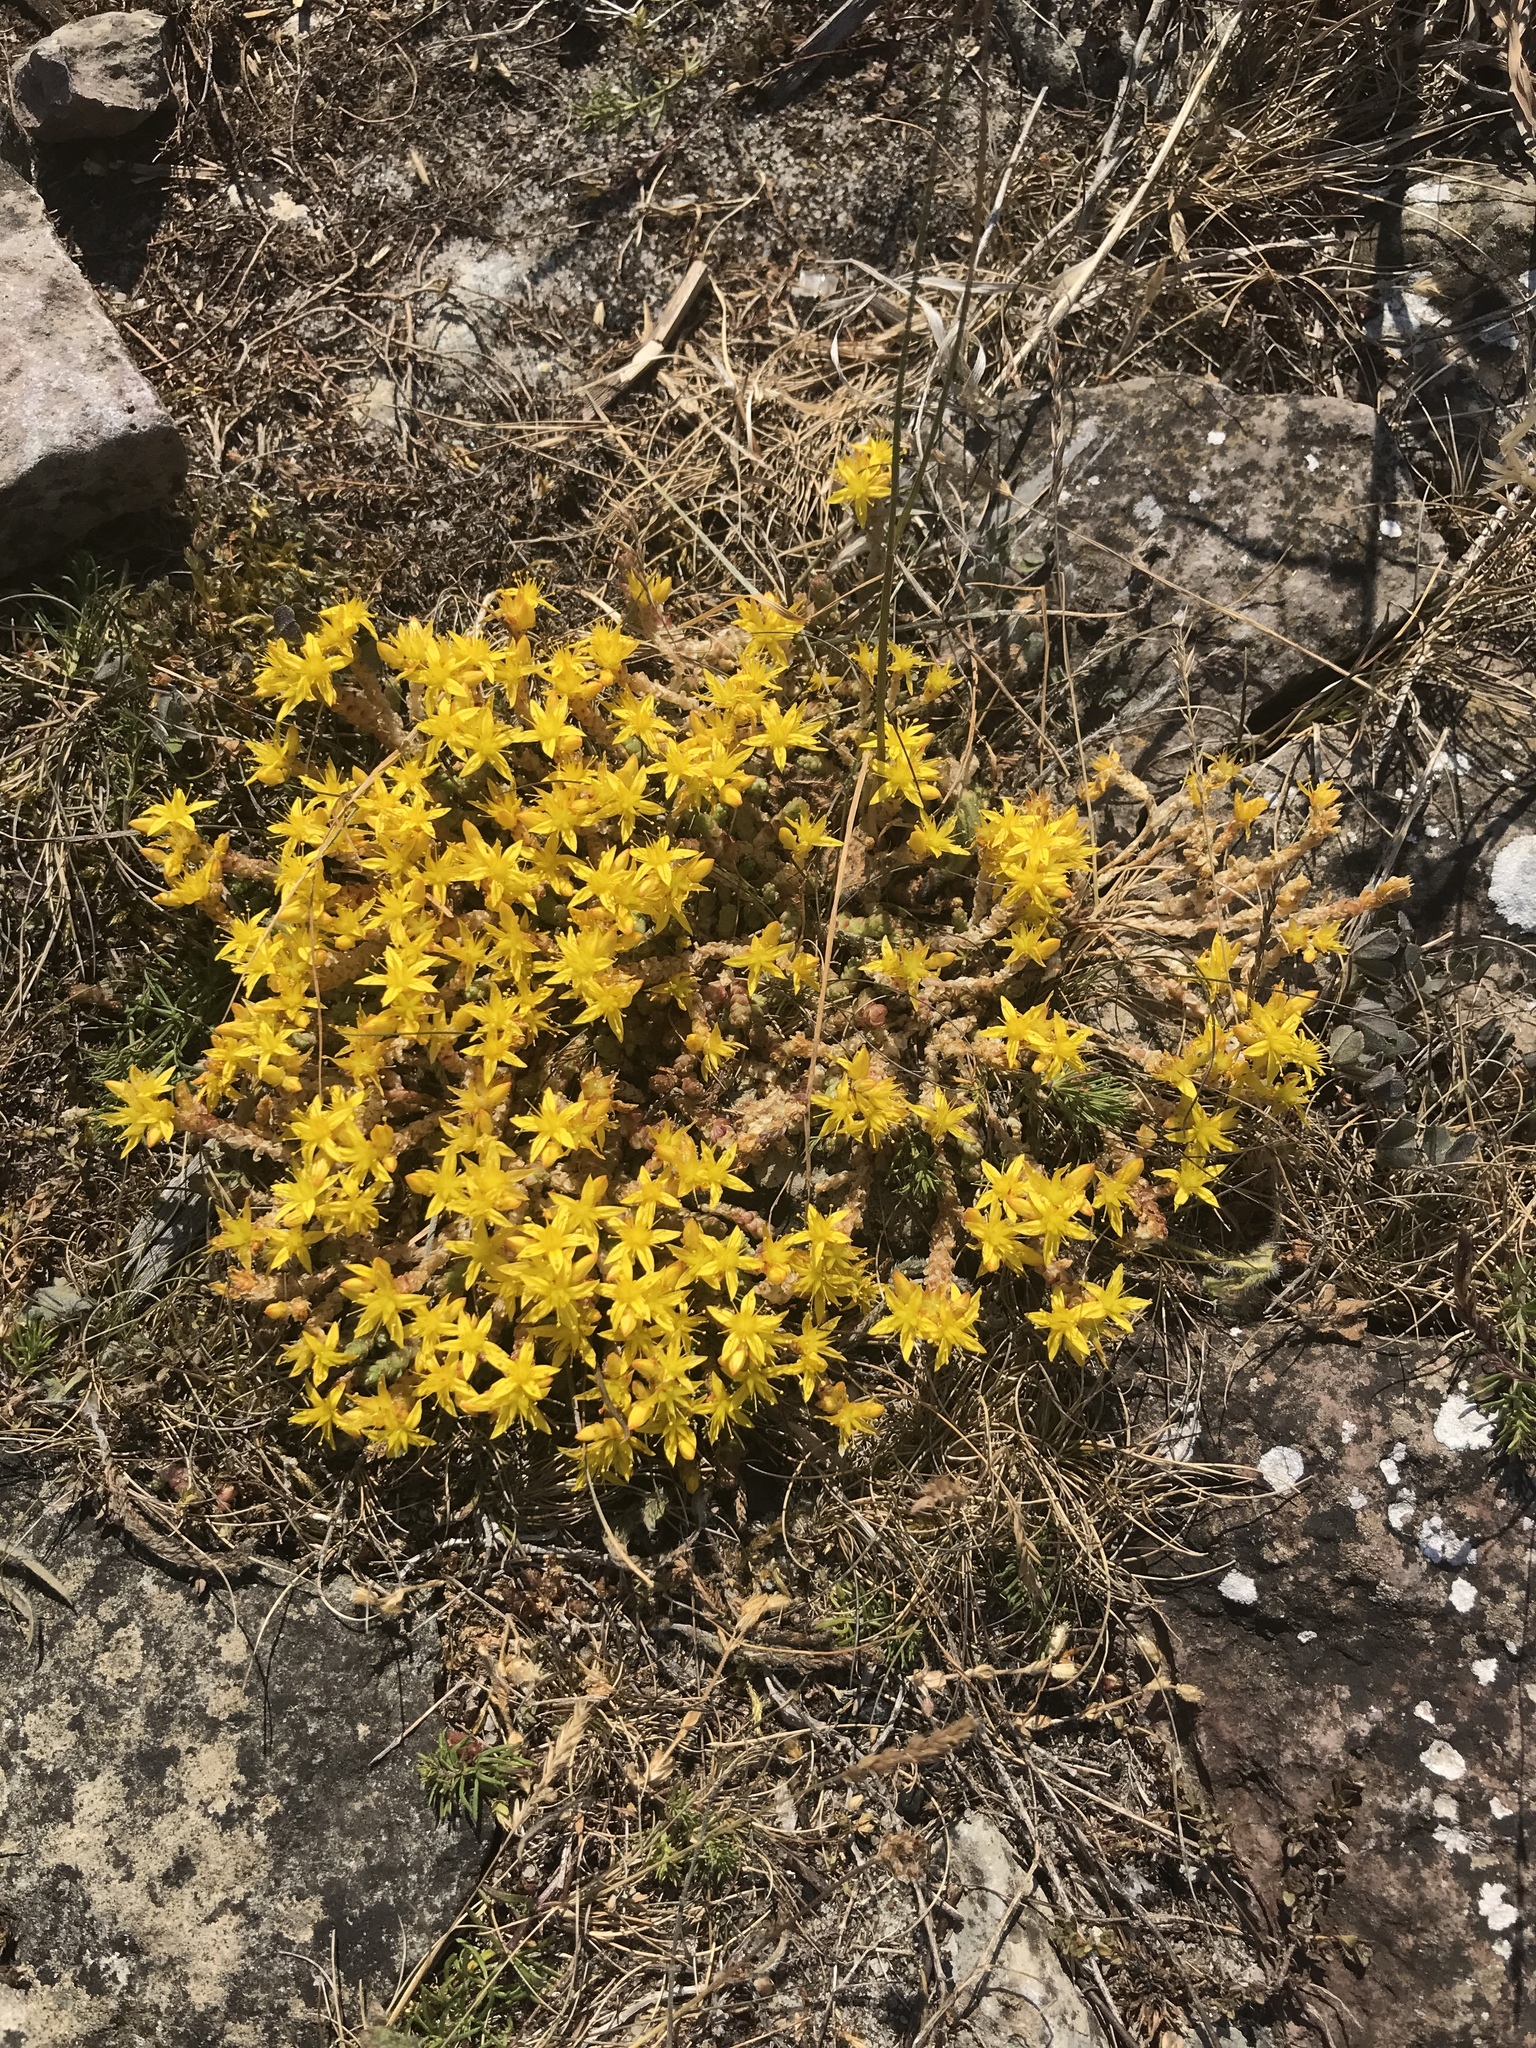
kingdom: Plantae
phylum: Tracheophyta
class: Magnoliopsida
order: Saxifragales
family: Crassulaceae
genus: Sedum
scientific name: Sedum acre
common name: Biting stonecrop
